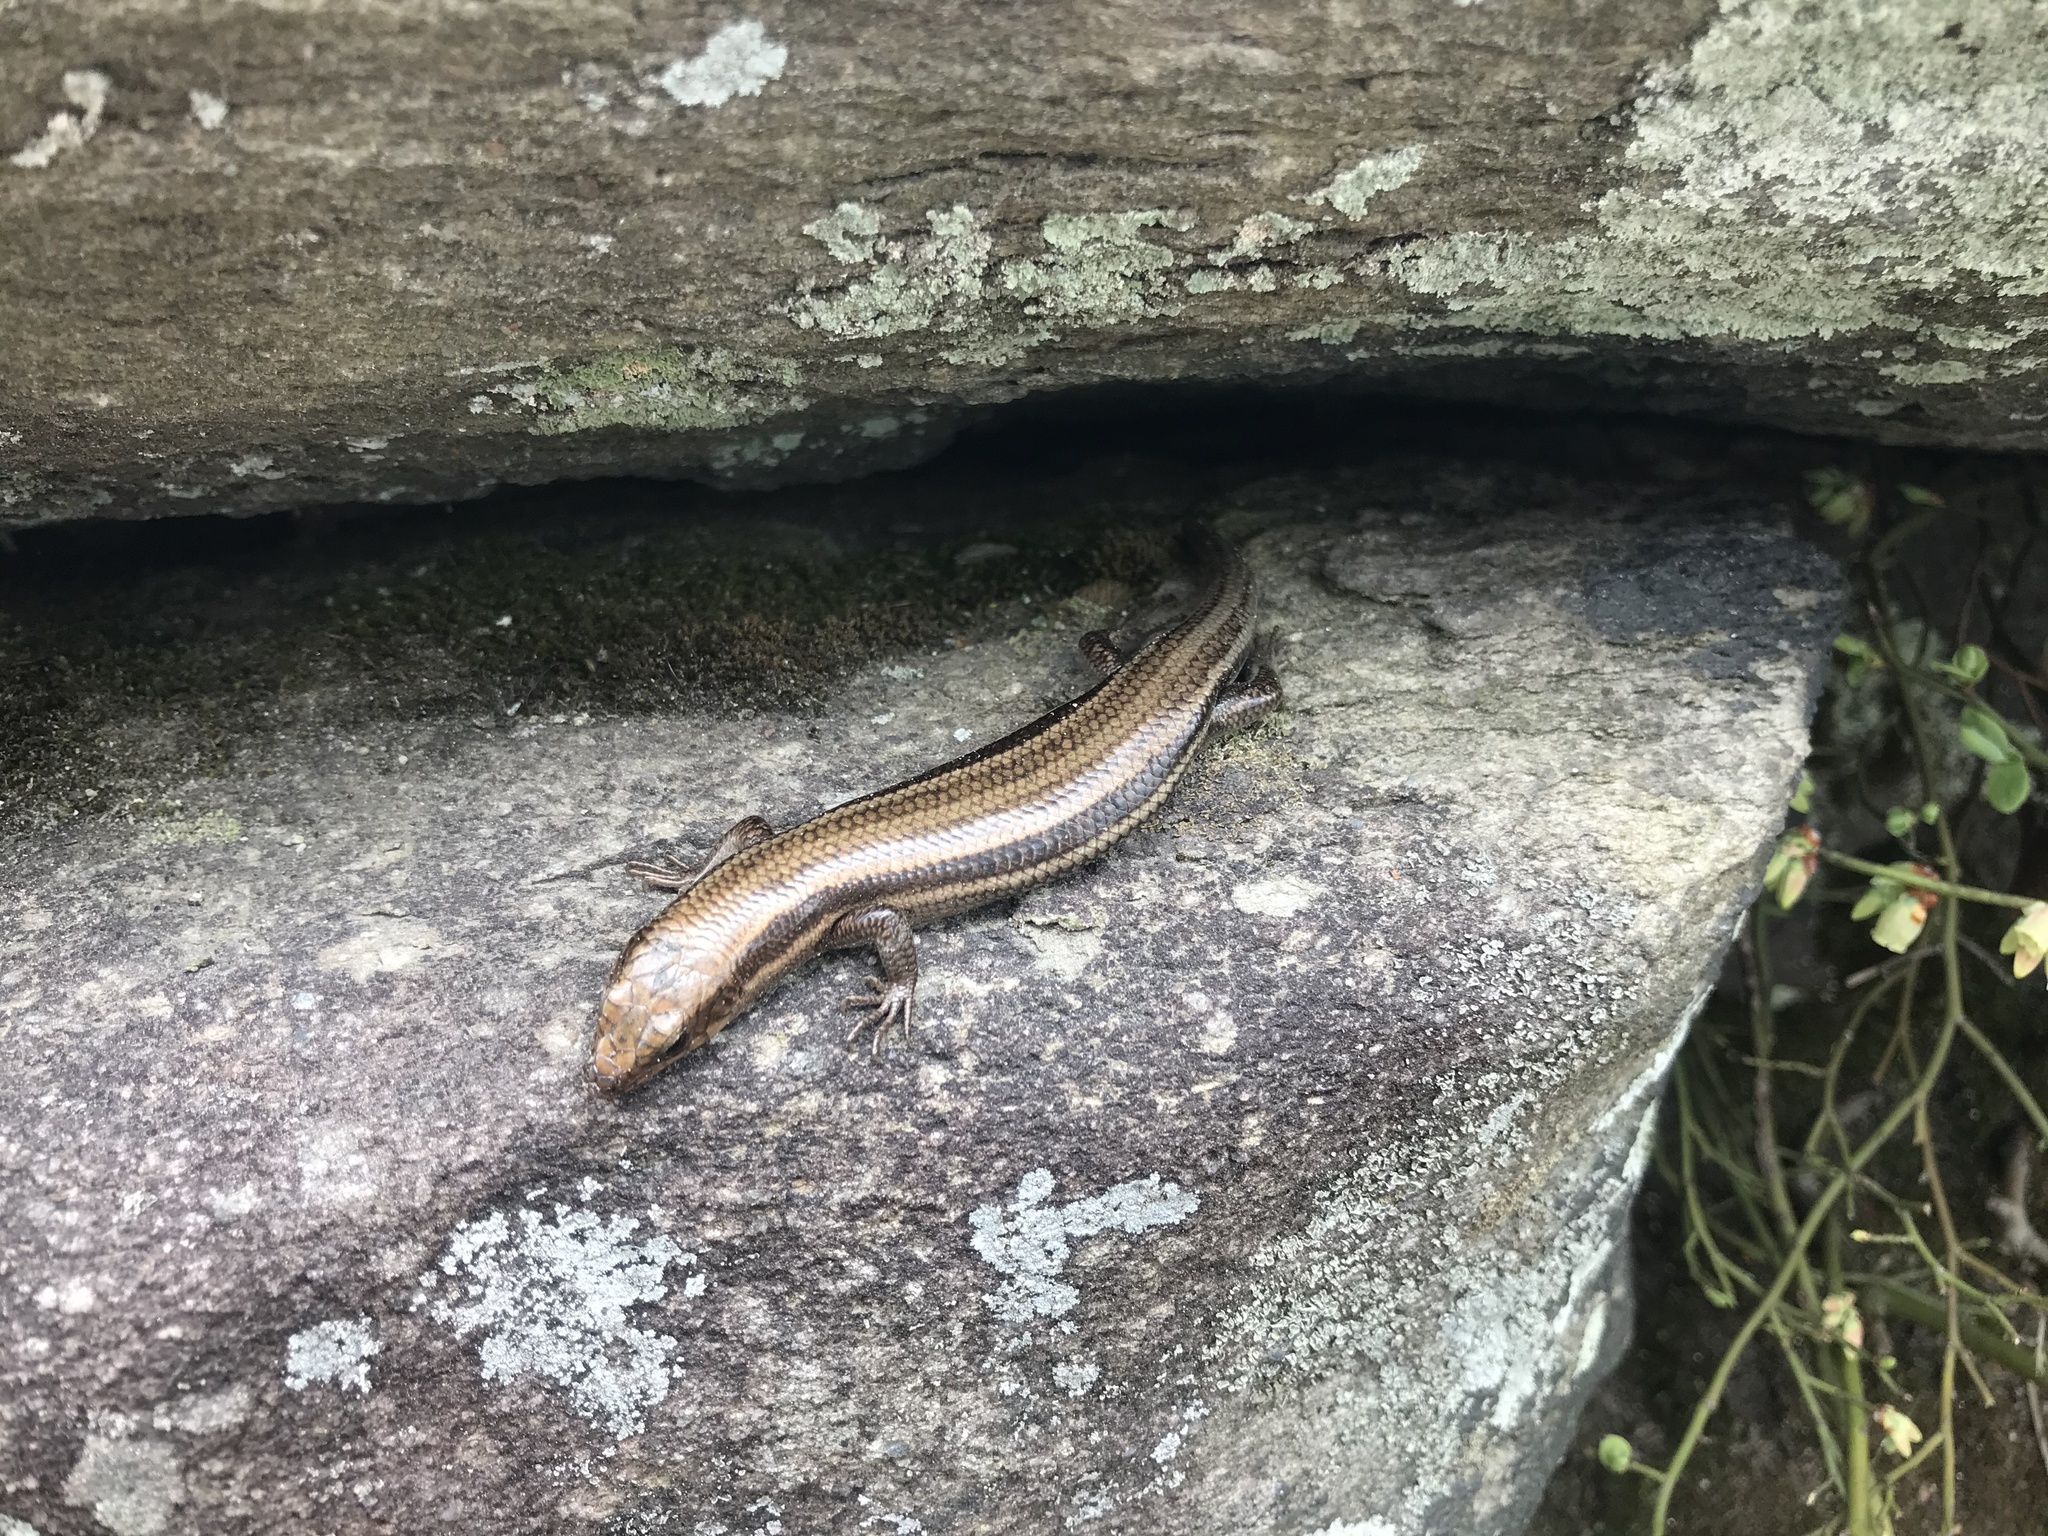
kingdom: Animalia
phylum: Chordata
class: Squamata
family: Scincidae
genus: Plestiodon
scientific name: Plestiodon fasciatus
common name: Five-lined skink
